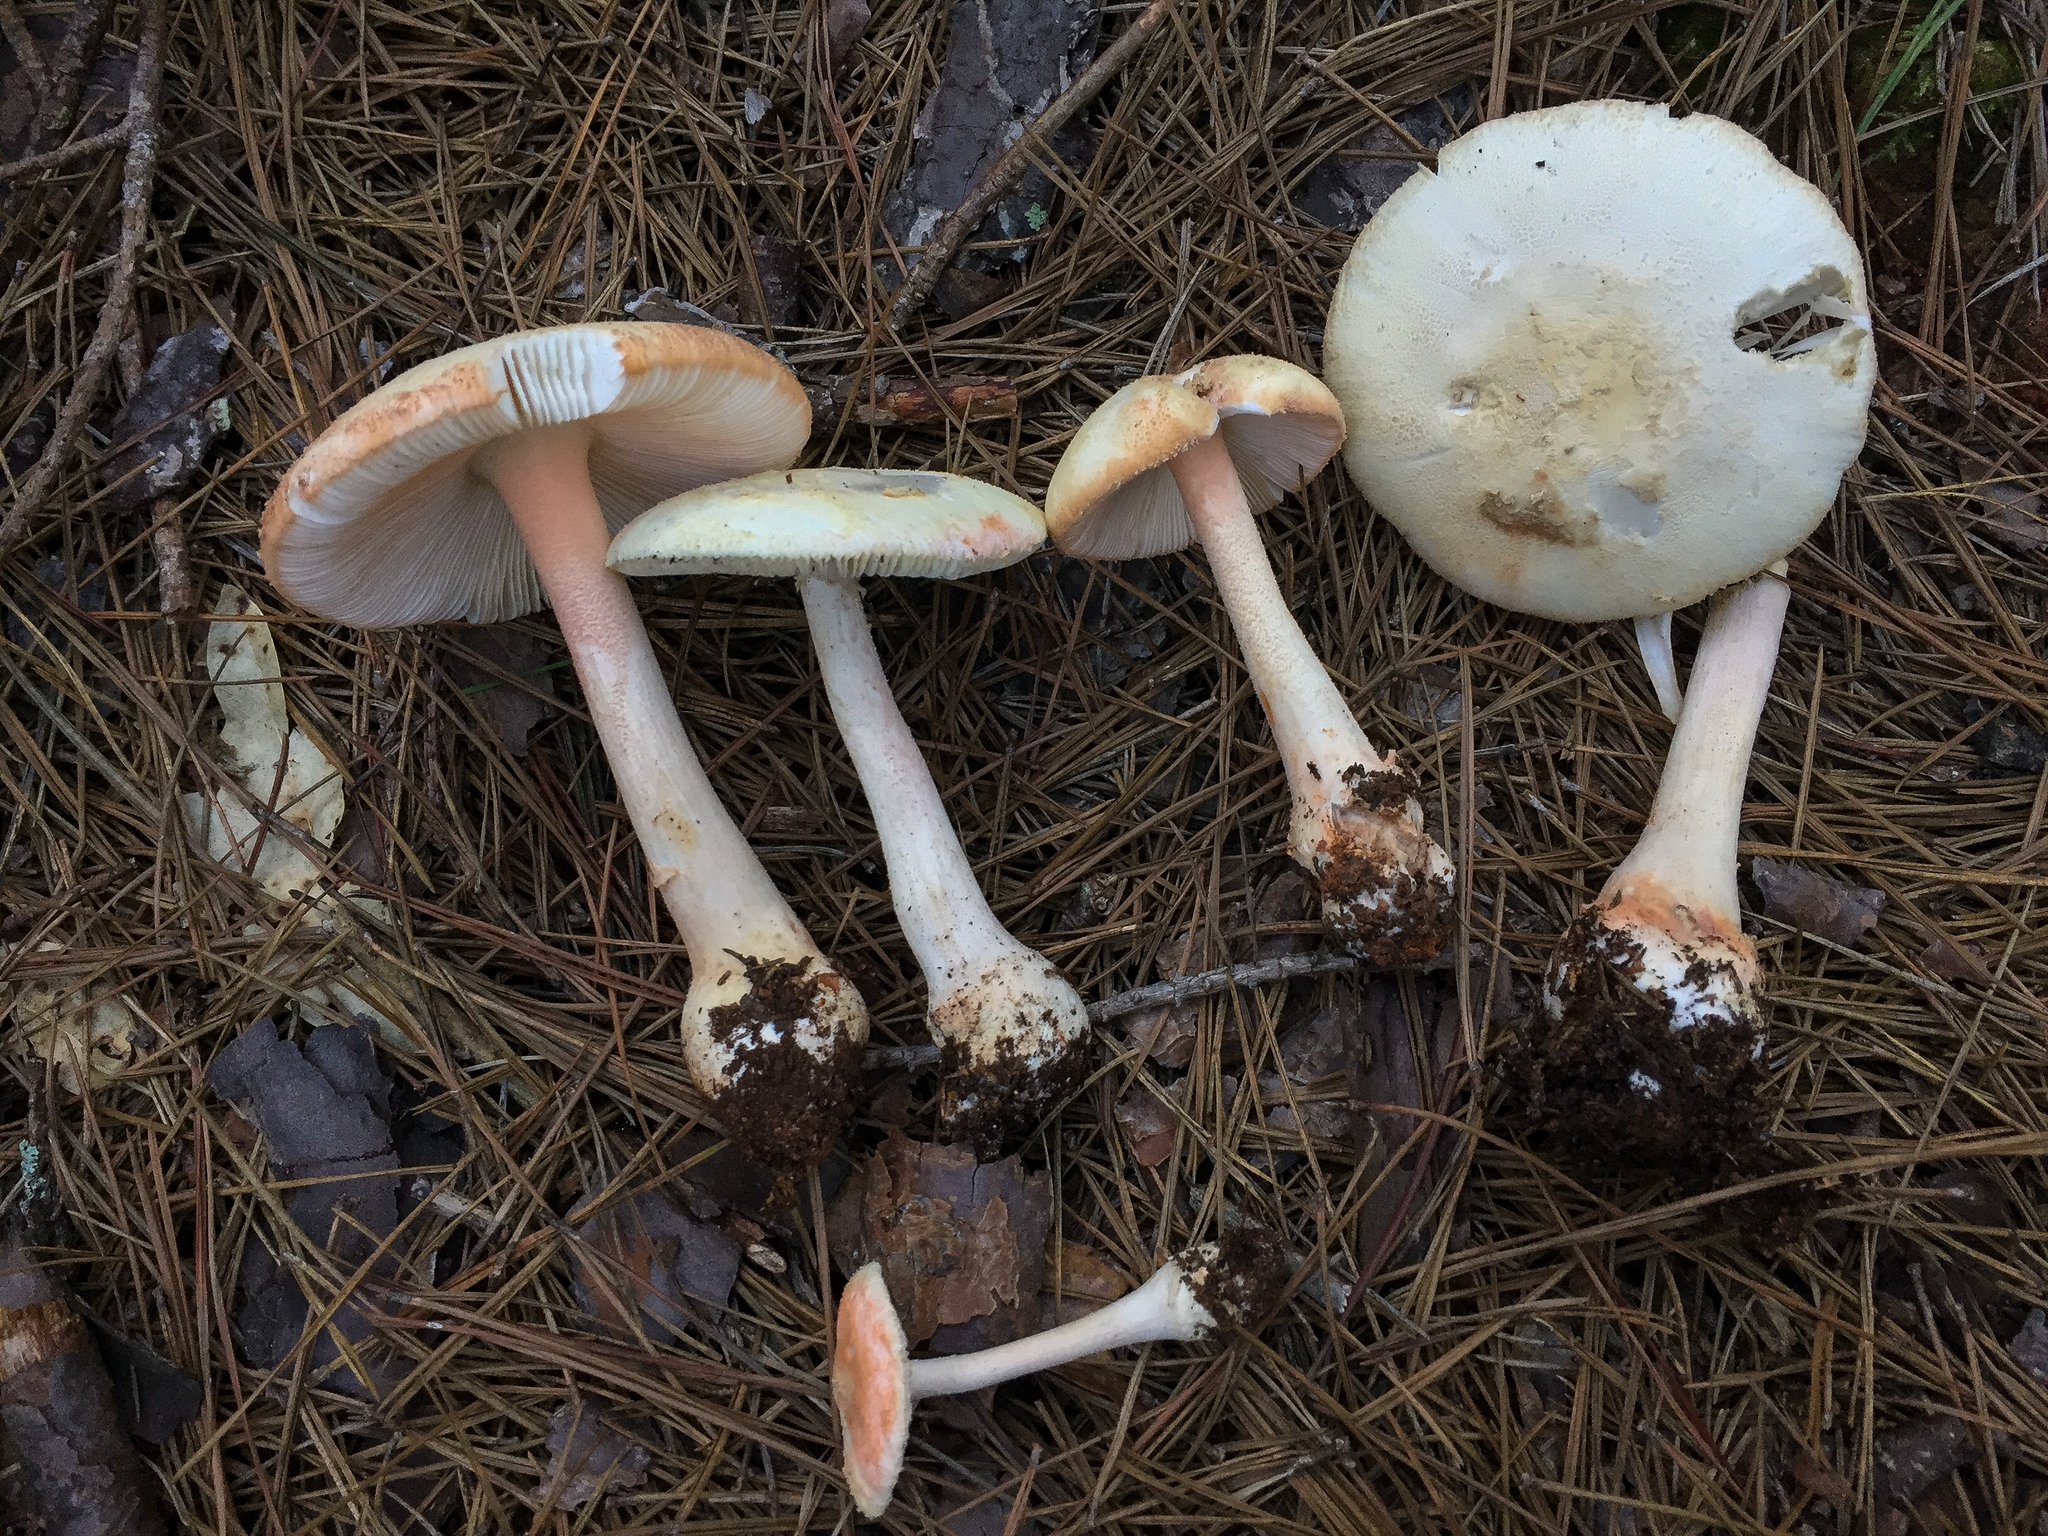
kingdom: Fungi
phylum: Basidiomycota
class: Agaricomycetes
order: Agaricales
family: Amanitaceae
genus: Amanita
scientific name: Amanita roseotincta
